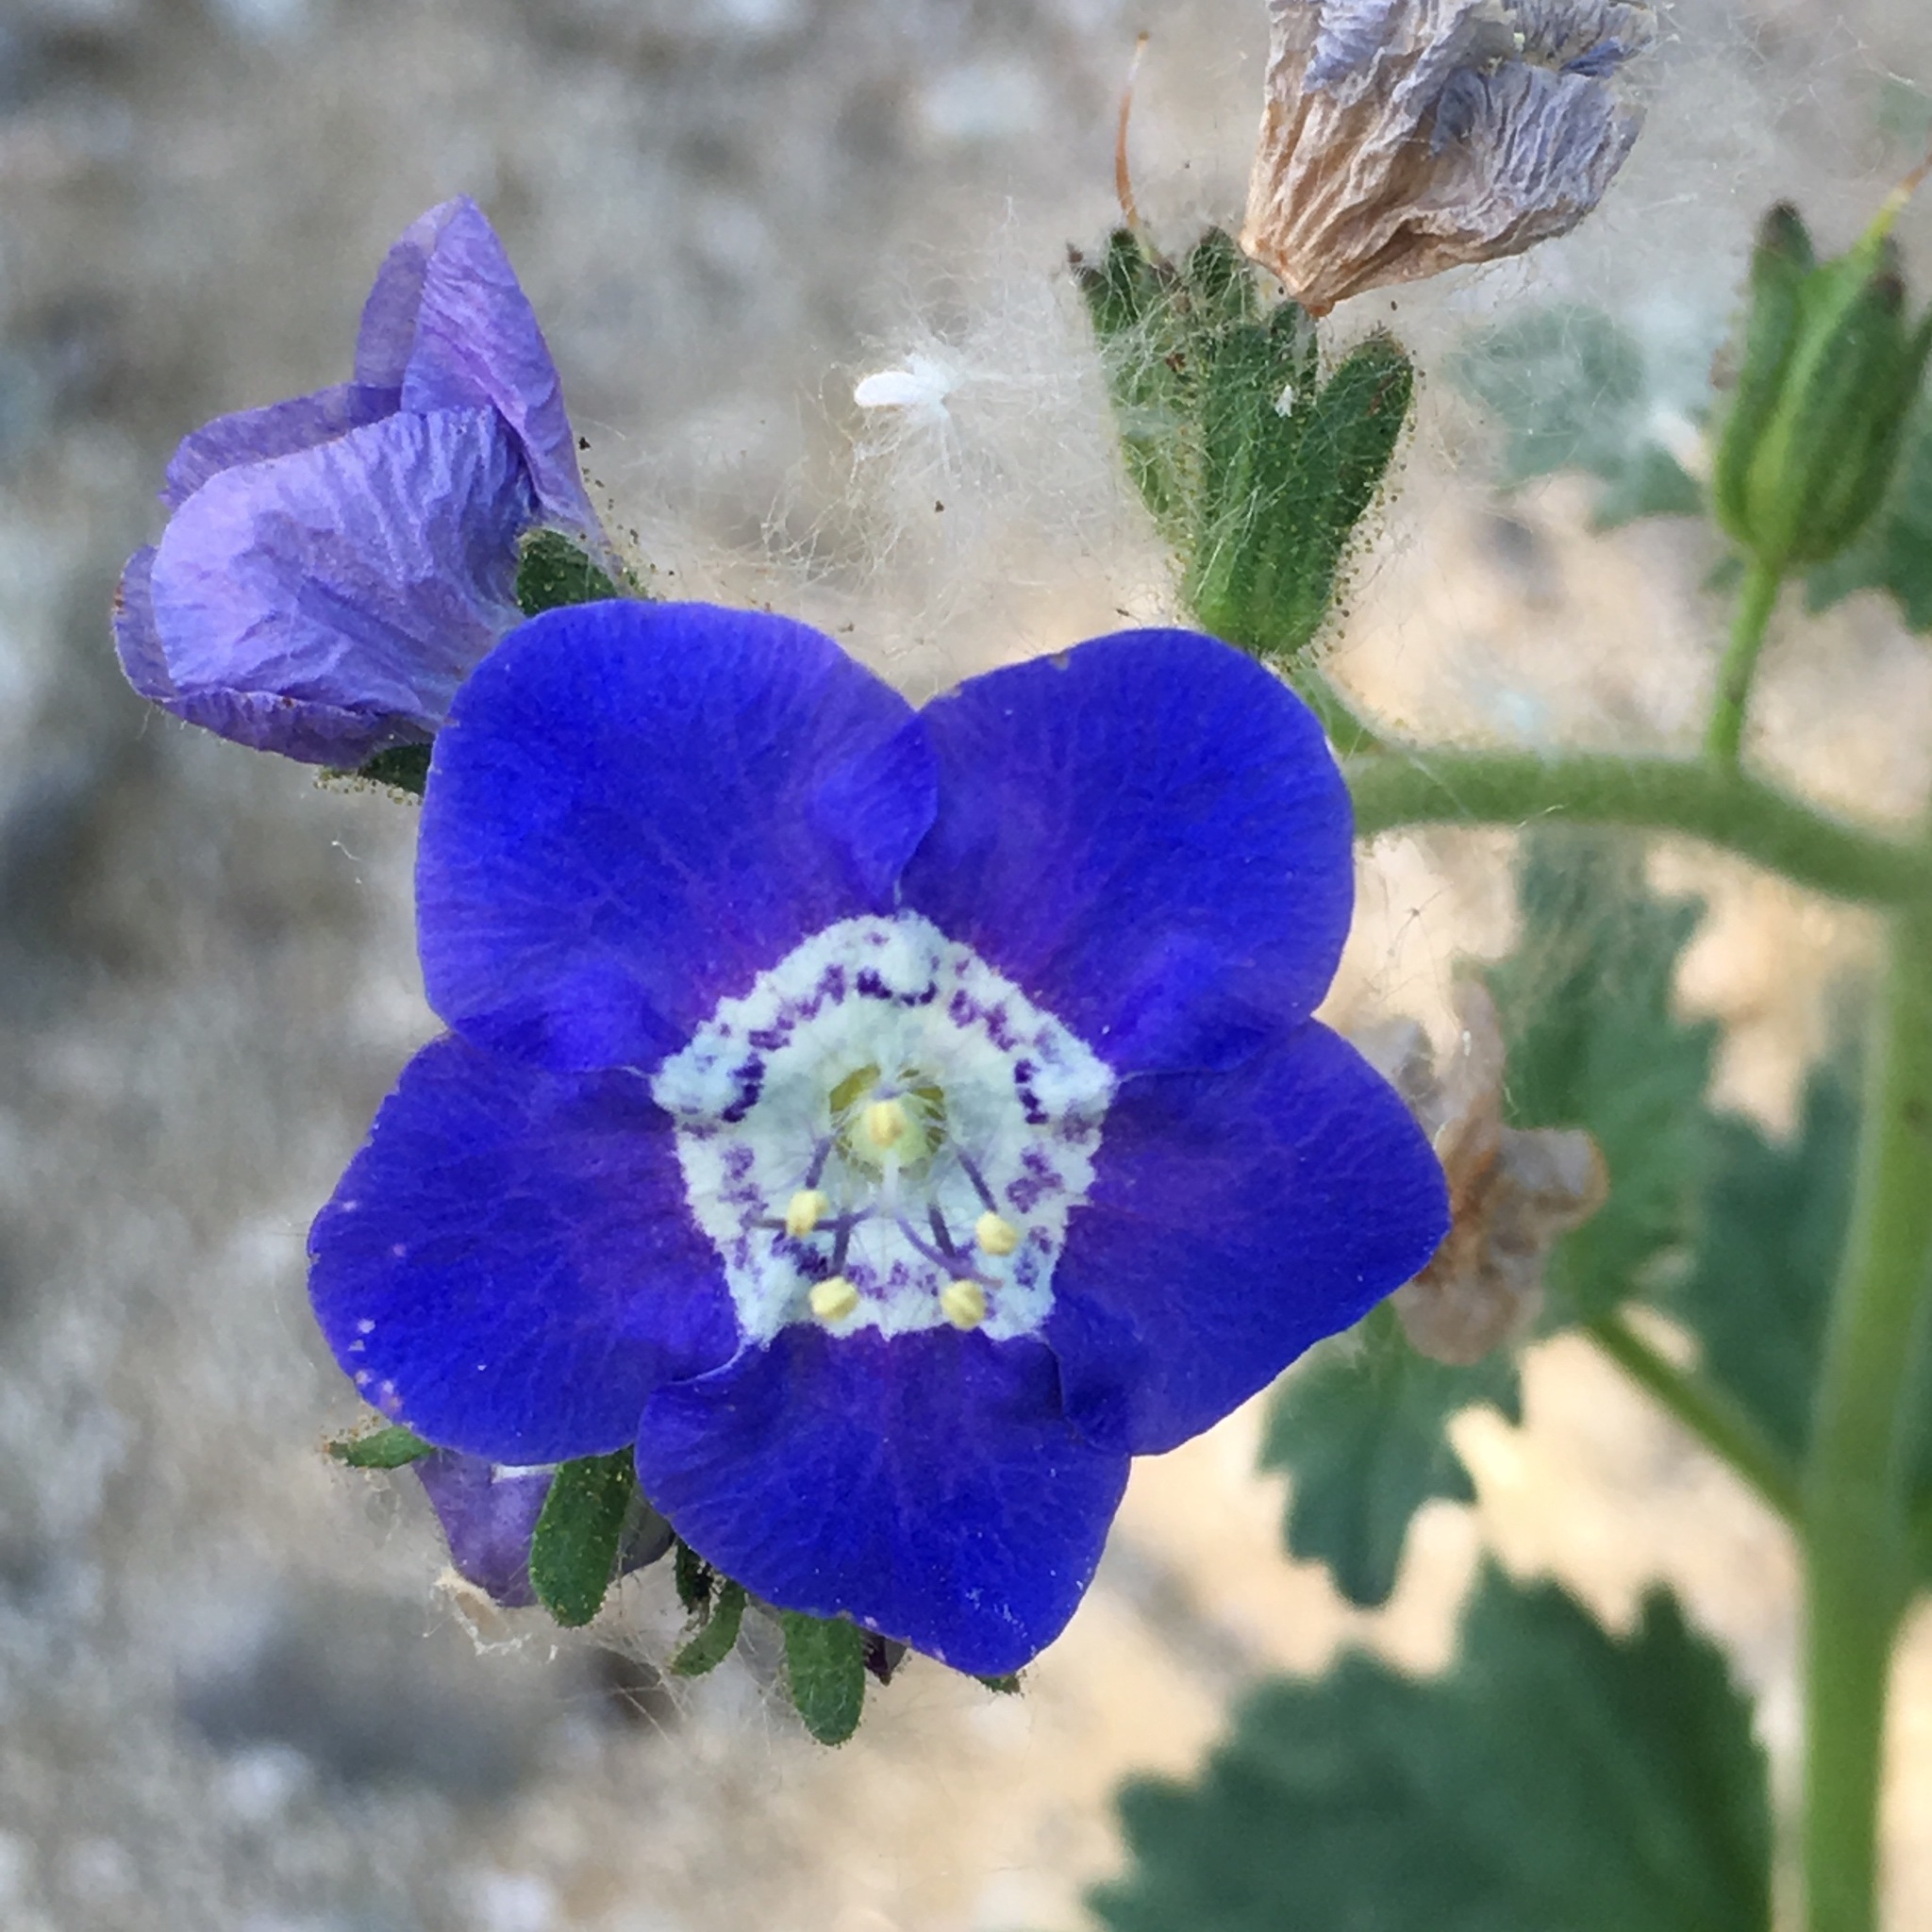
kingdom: Plantae
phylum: Tracheophyta
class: Magnoliopsida
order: Boraginales
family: Hydrophyllaceae
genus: Phacelia
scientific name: Phacelia viscida
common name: Sticky phacelia
